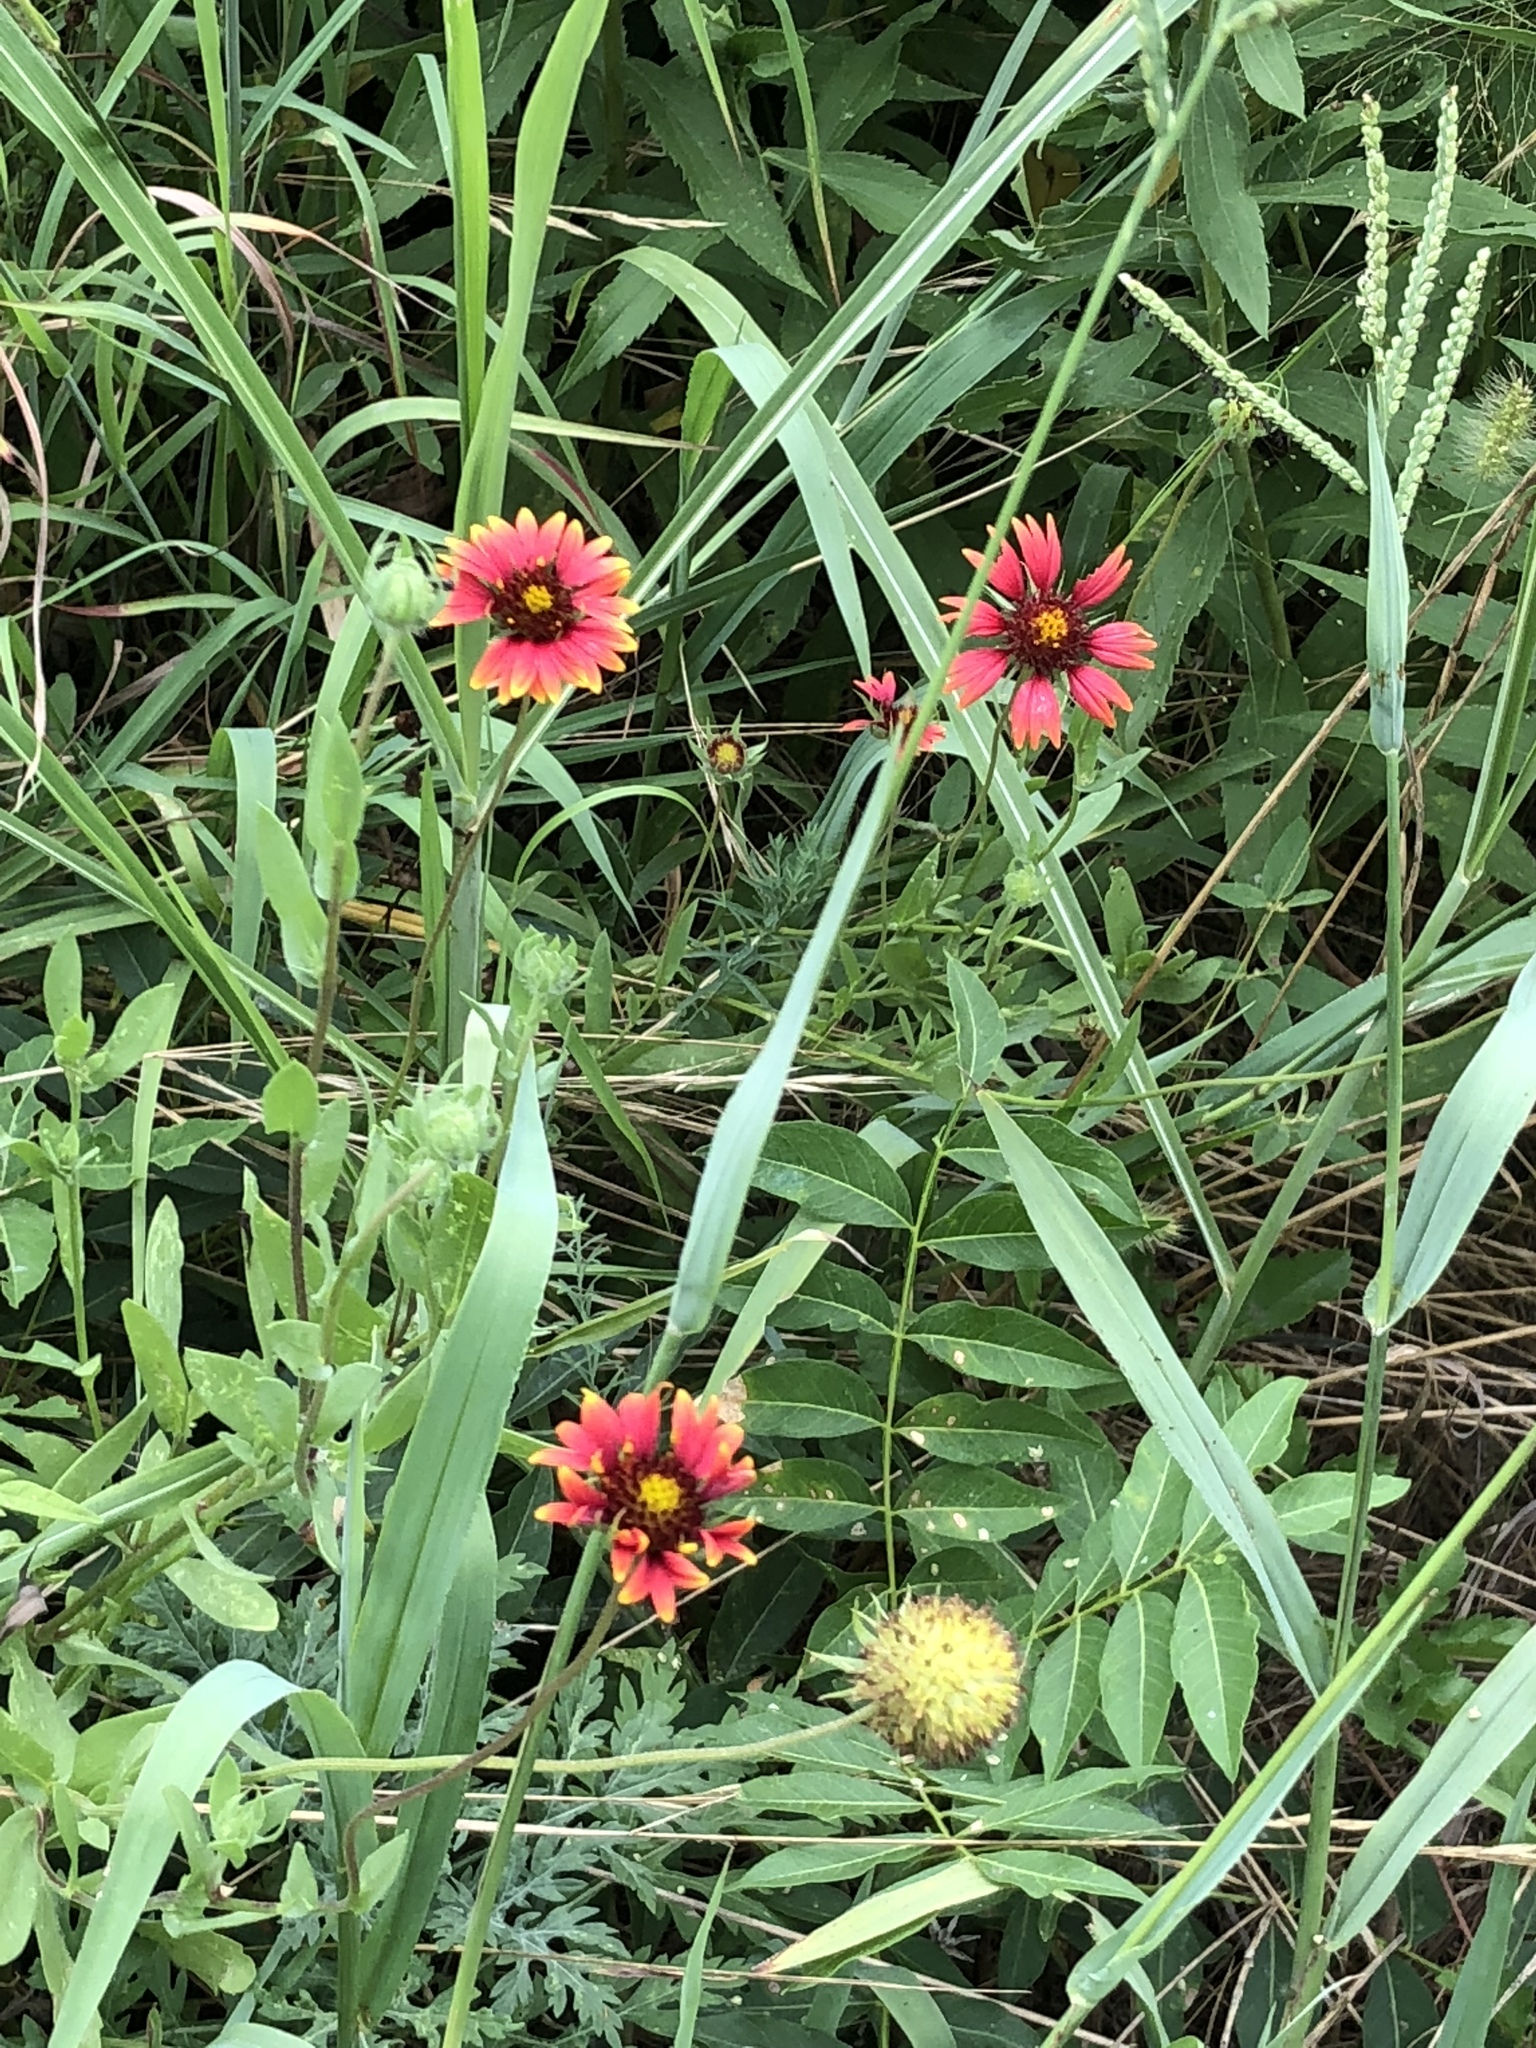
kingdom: Plantae
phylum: Tracheophyta
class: Magnoliopsida
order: Asterales
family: Asteraceae
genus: Gaillardia
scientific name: Gaillardia pulchella
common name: Firewheel
